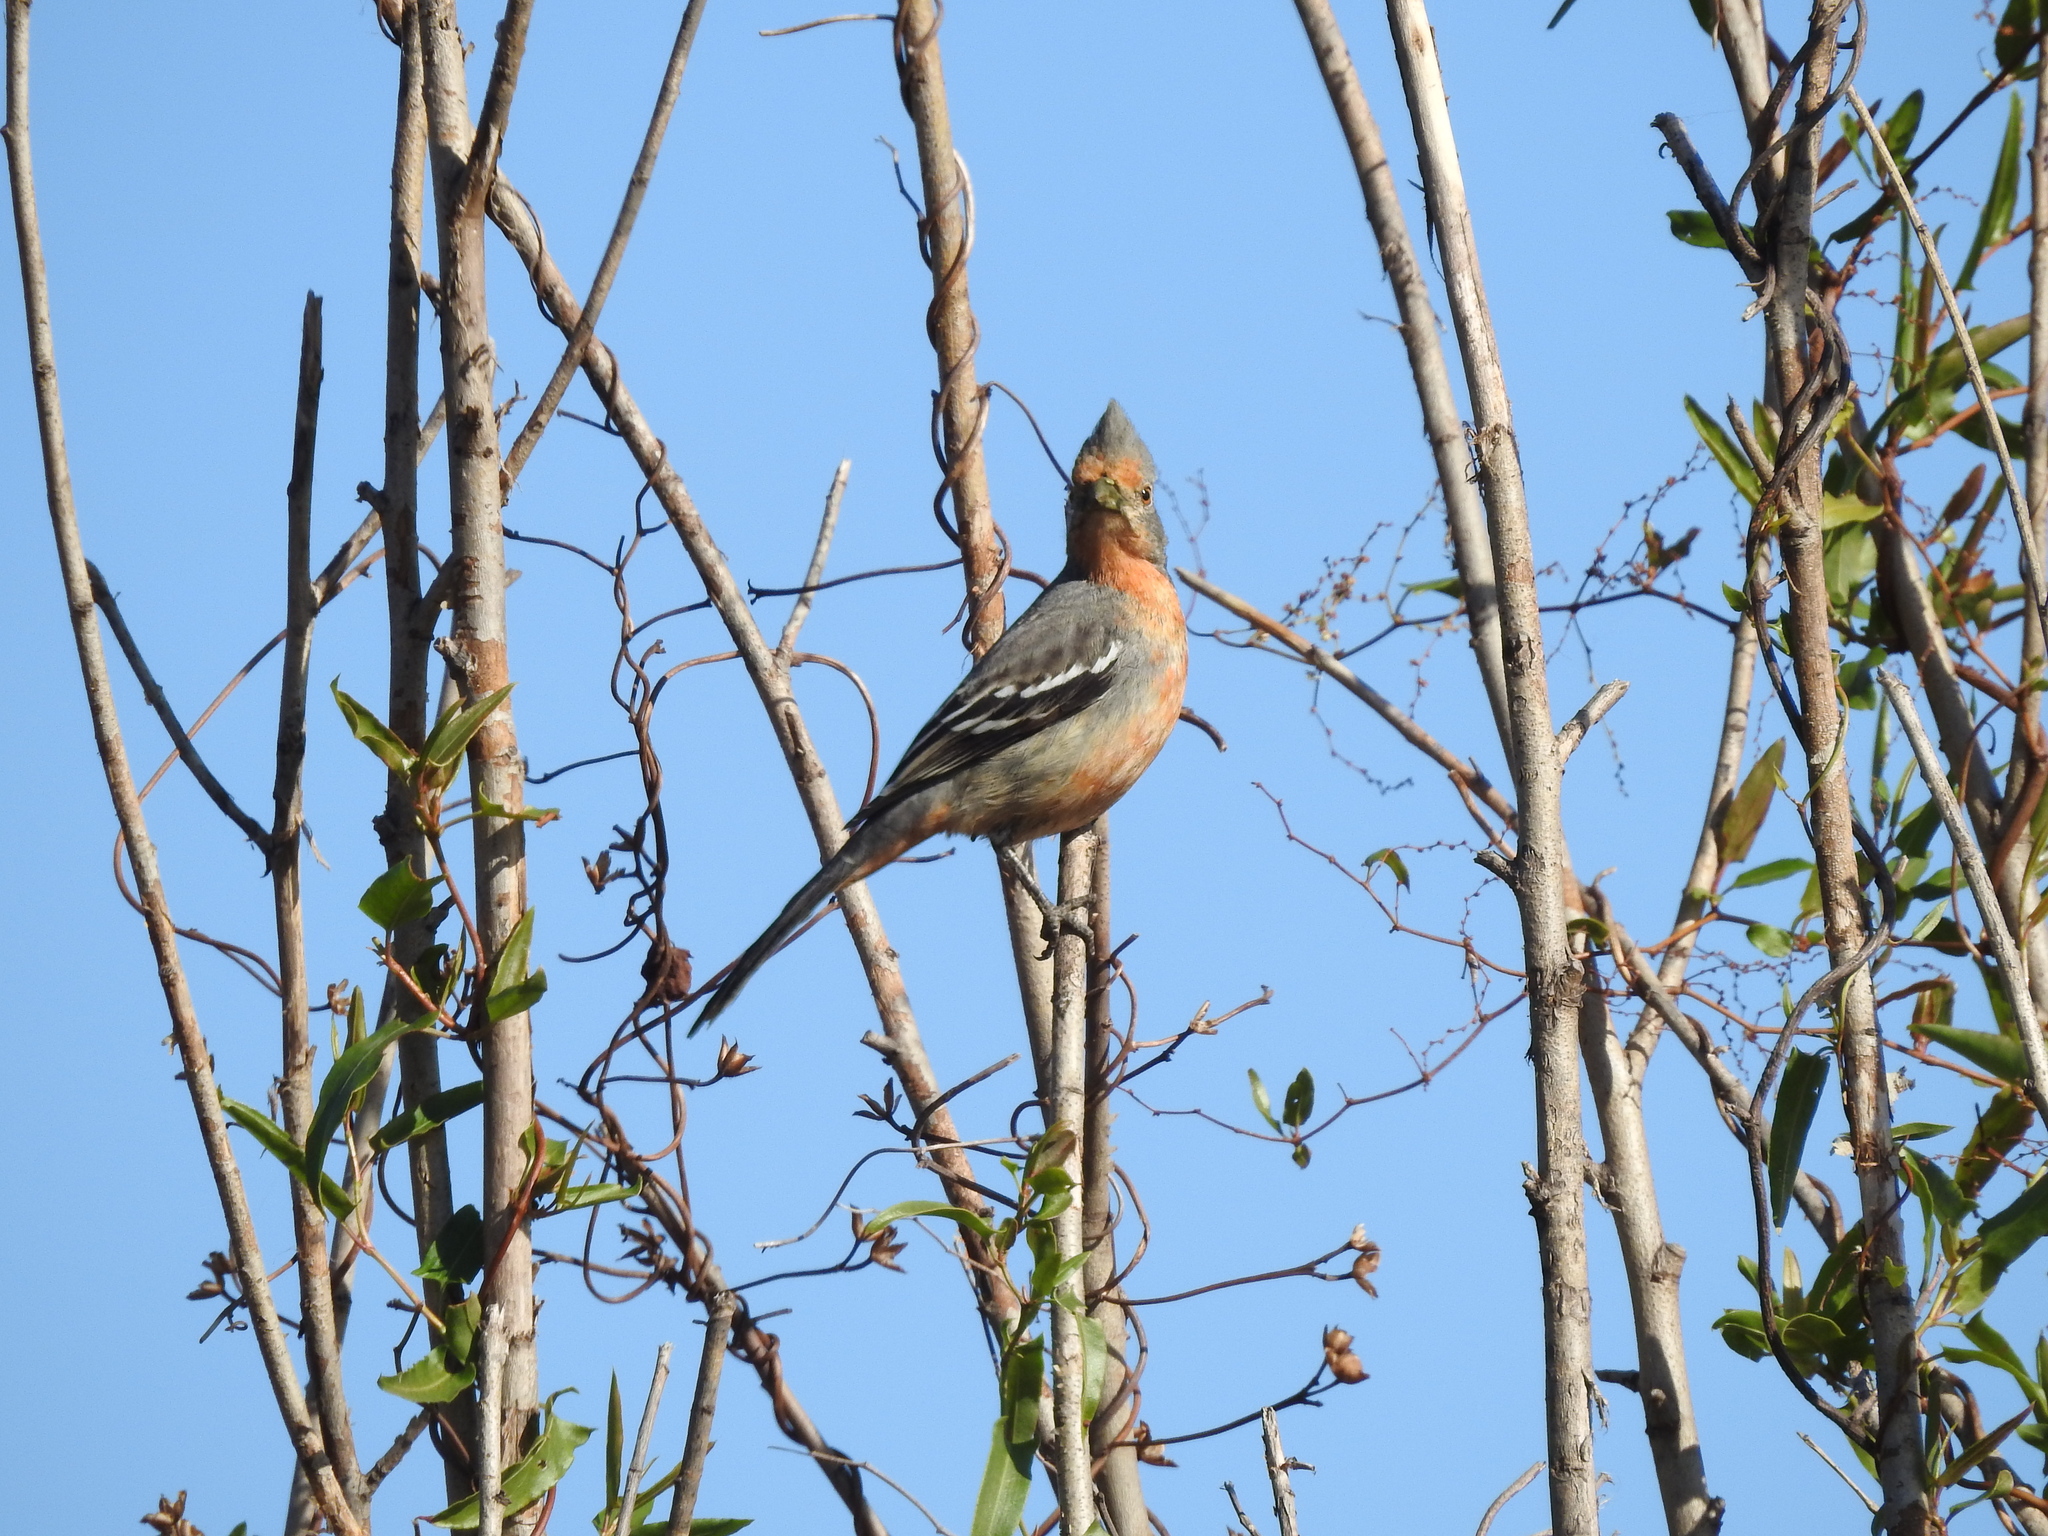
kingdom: Animalia
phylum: Chordata
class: Aves
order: Passeriformes
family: Cotingidae
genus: Phytotoma
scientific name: Phytotoma rutila
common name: White-tipped plantcutter
